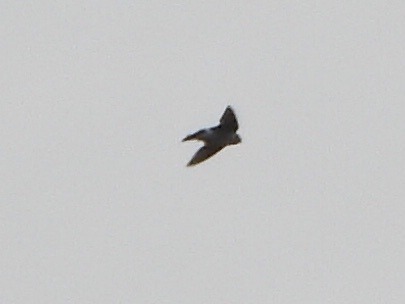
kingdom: Animalia
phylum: Chordata
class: Aves
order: Passeriformes
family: Hirundinidae
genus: Tachycineta
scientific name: Tachycineta thalassina
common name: Violet-green swallow
